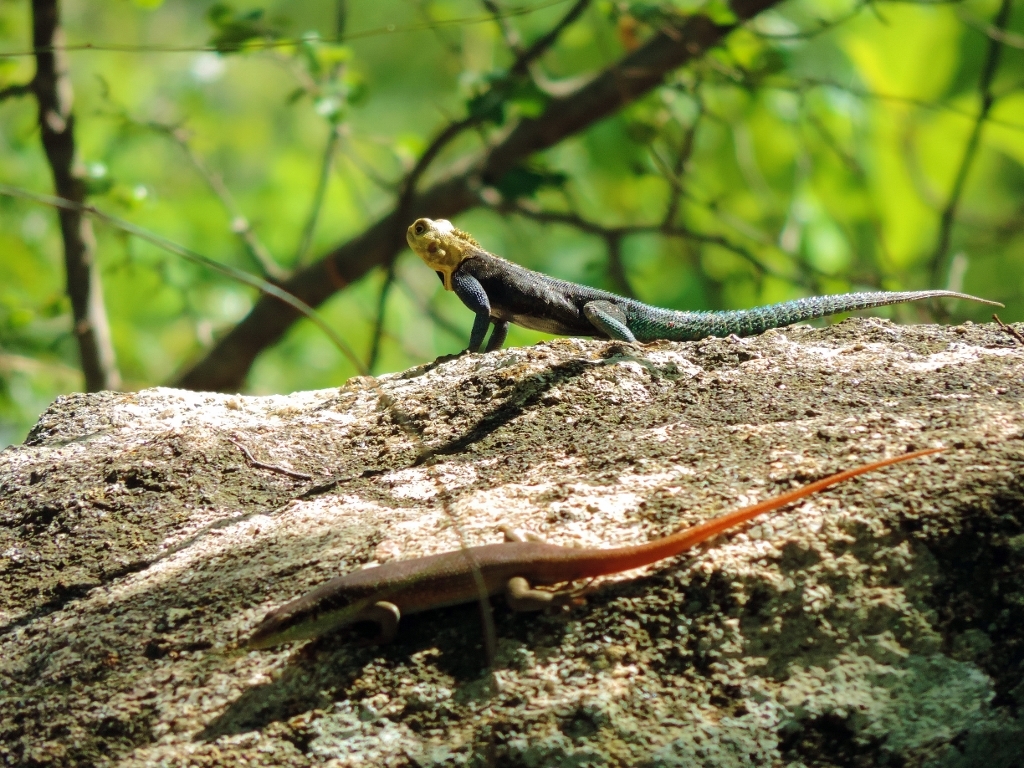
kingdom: Animalia
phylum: Chordata
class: Squamata
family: Scincidae
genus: Trachylepis
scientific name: Trachylepis margaritifera
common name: Rainbow skink
